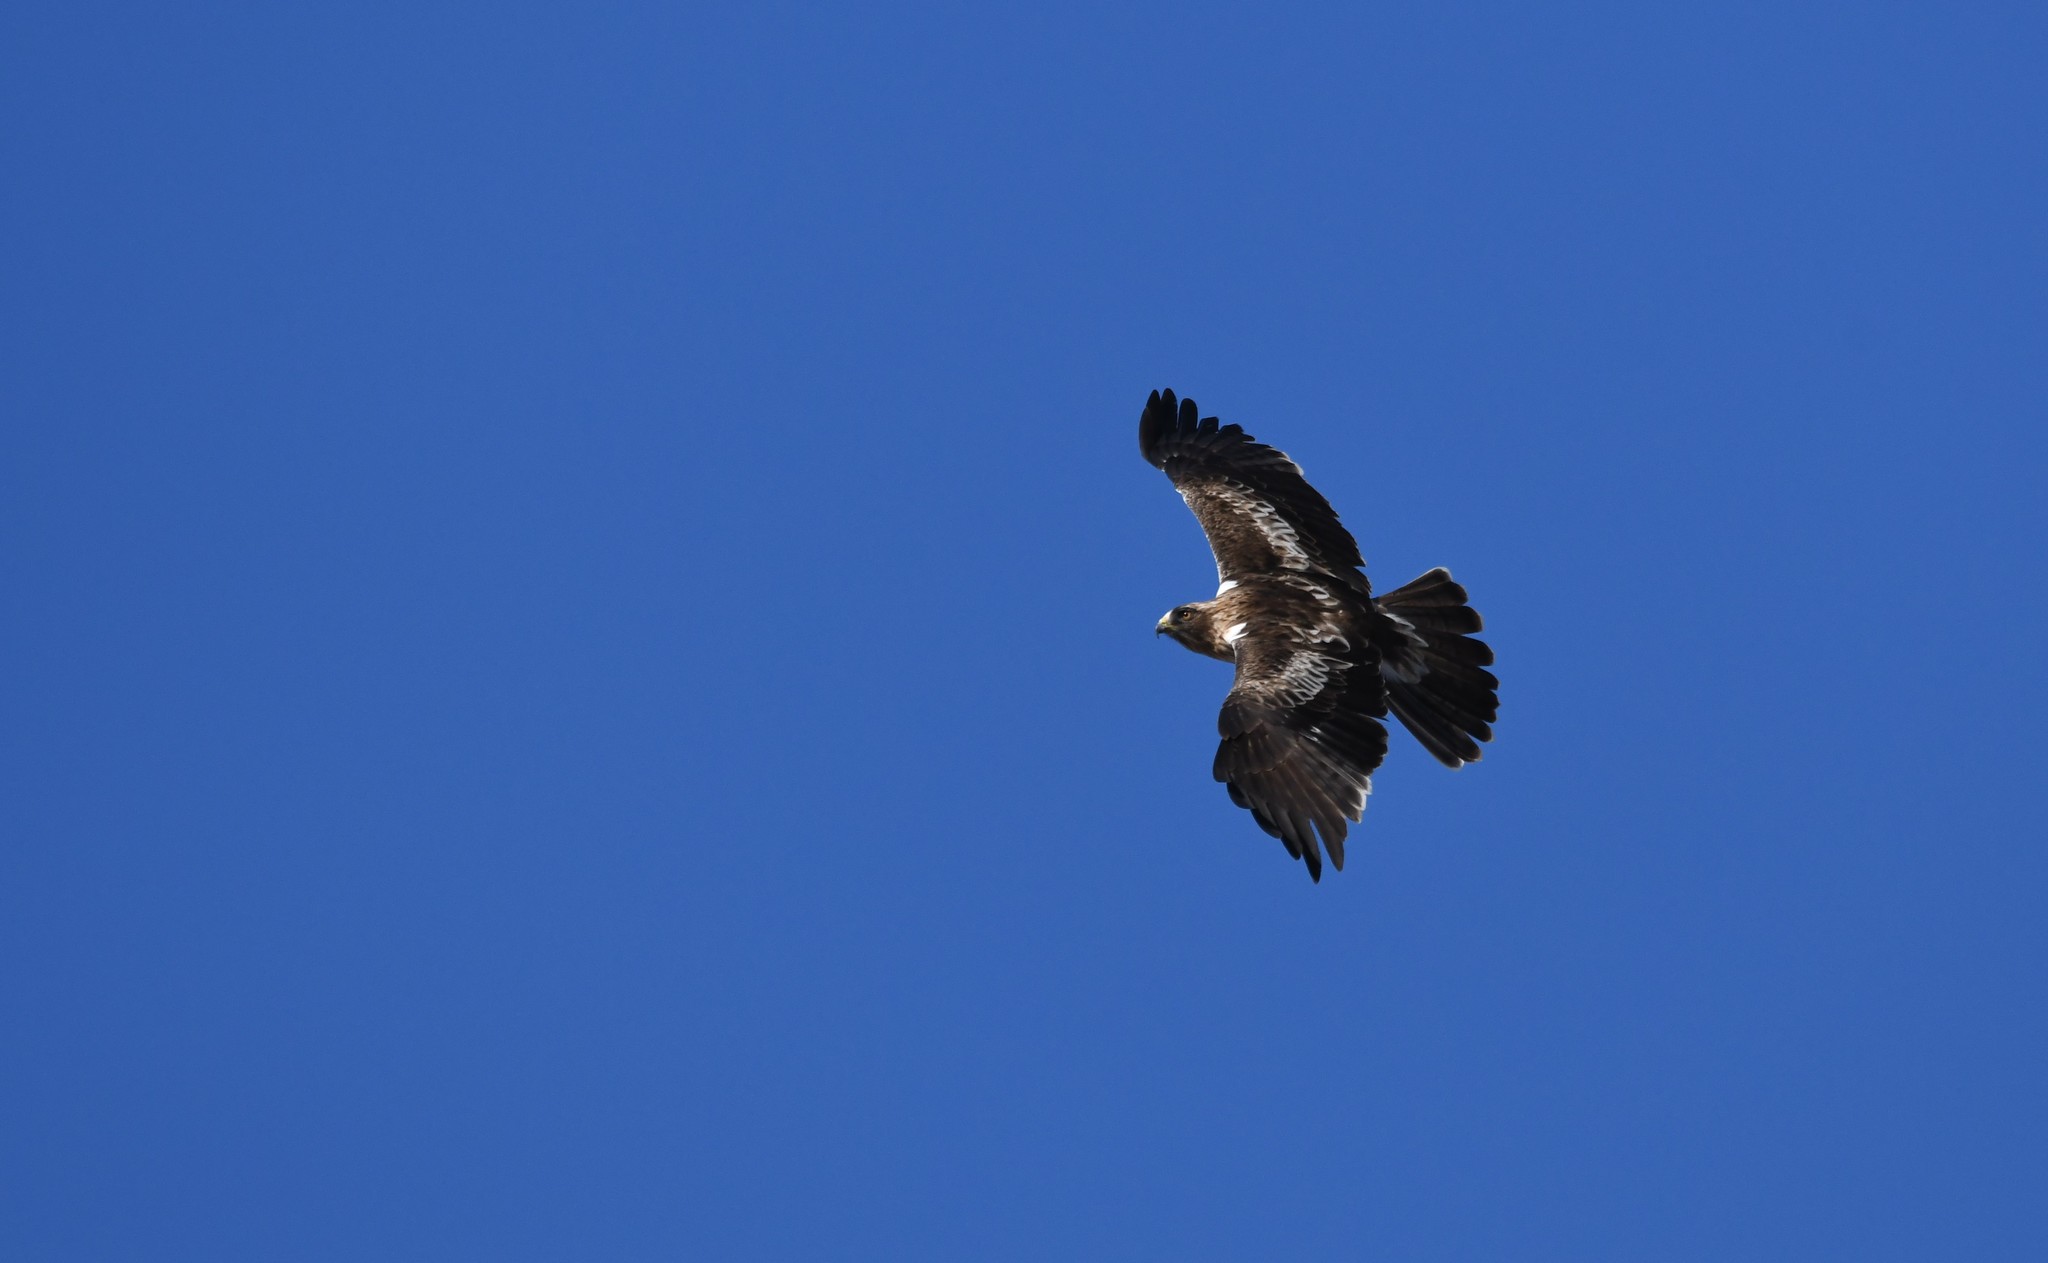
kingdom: Animalia
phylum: Chordata
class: Aves
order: Accipitriformes
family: Accipitridae
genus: Hieraaetus
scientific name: Hieraaetus pennatus
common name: Booted eagle
